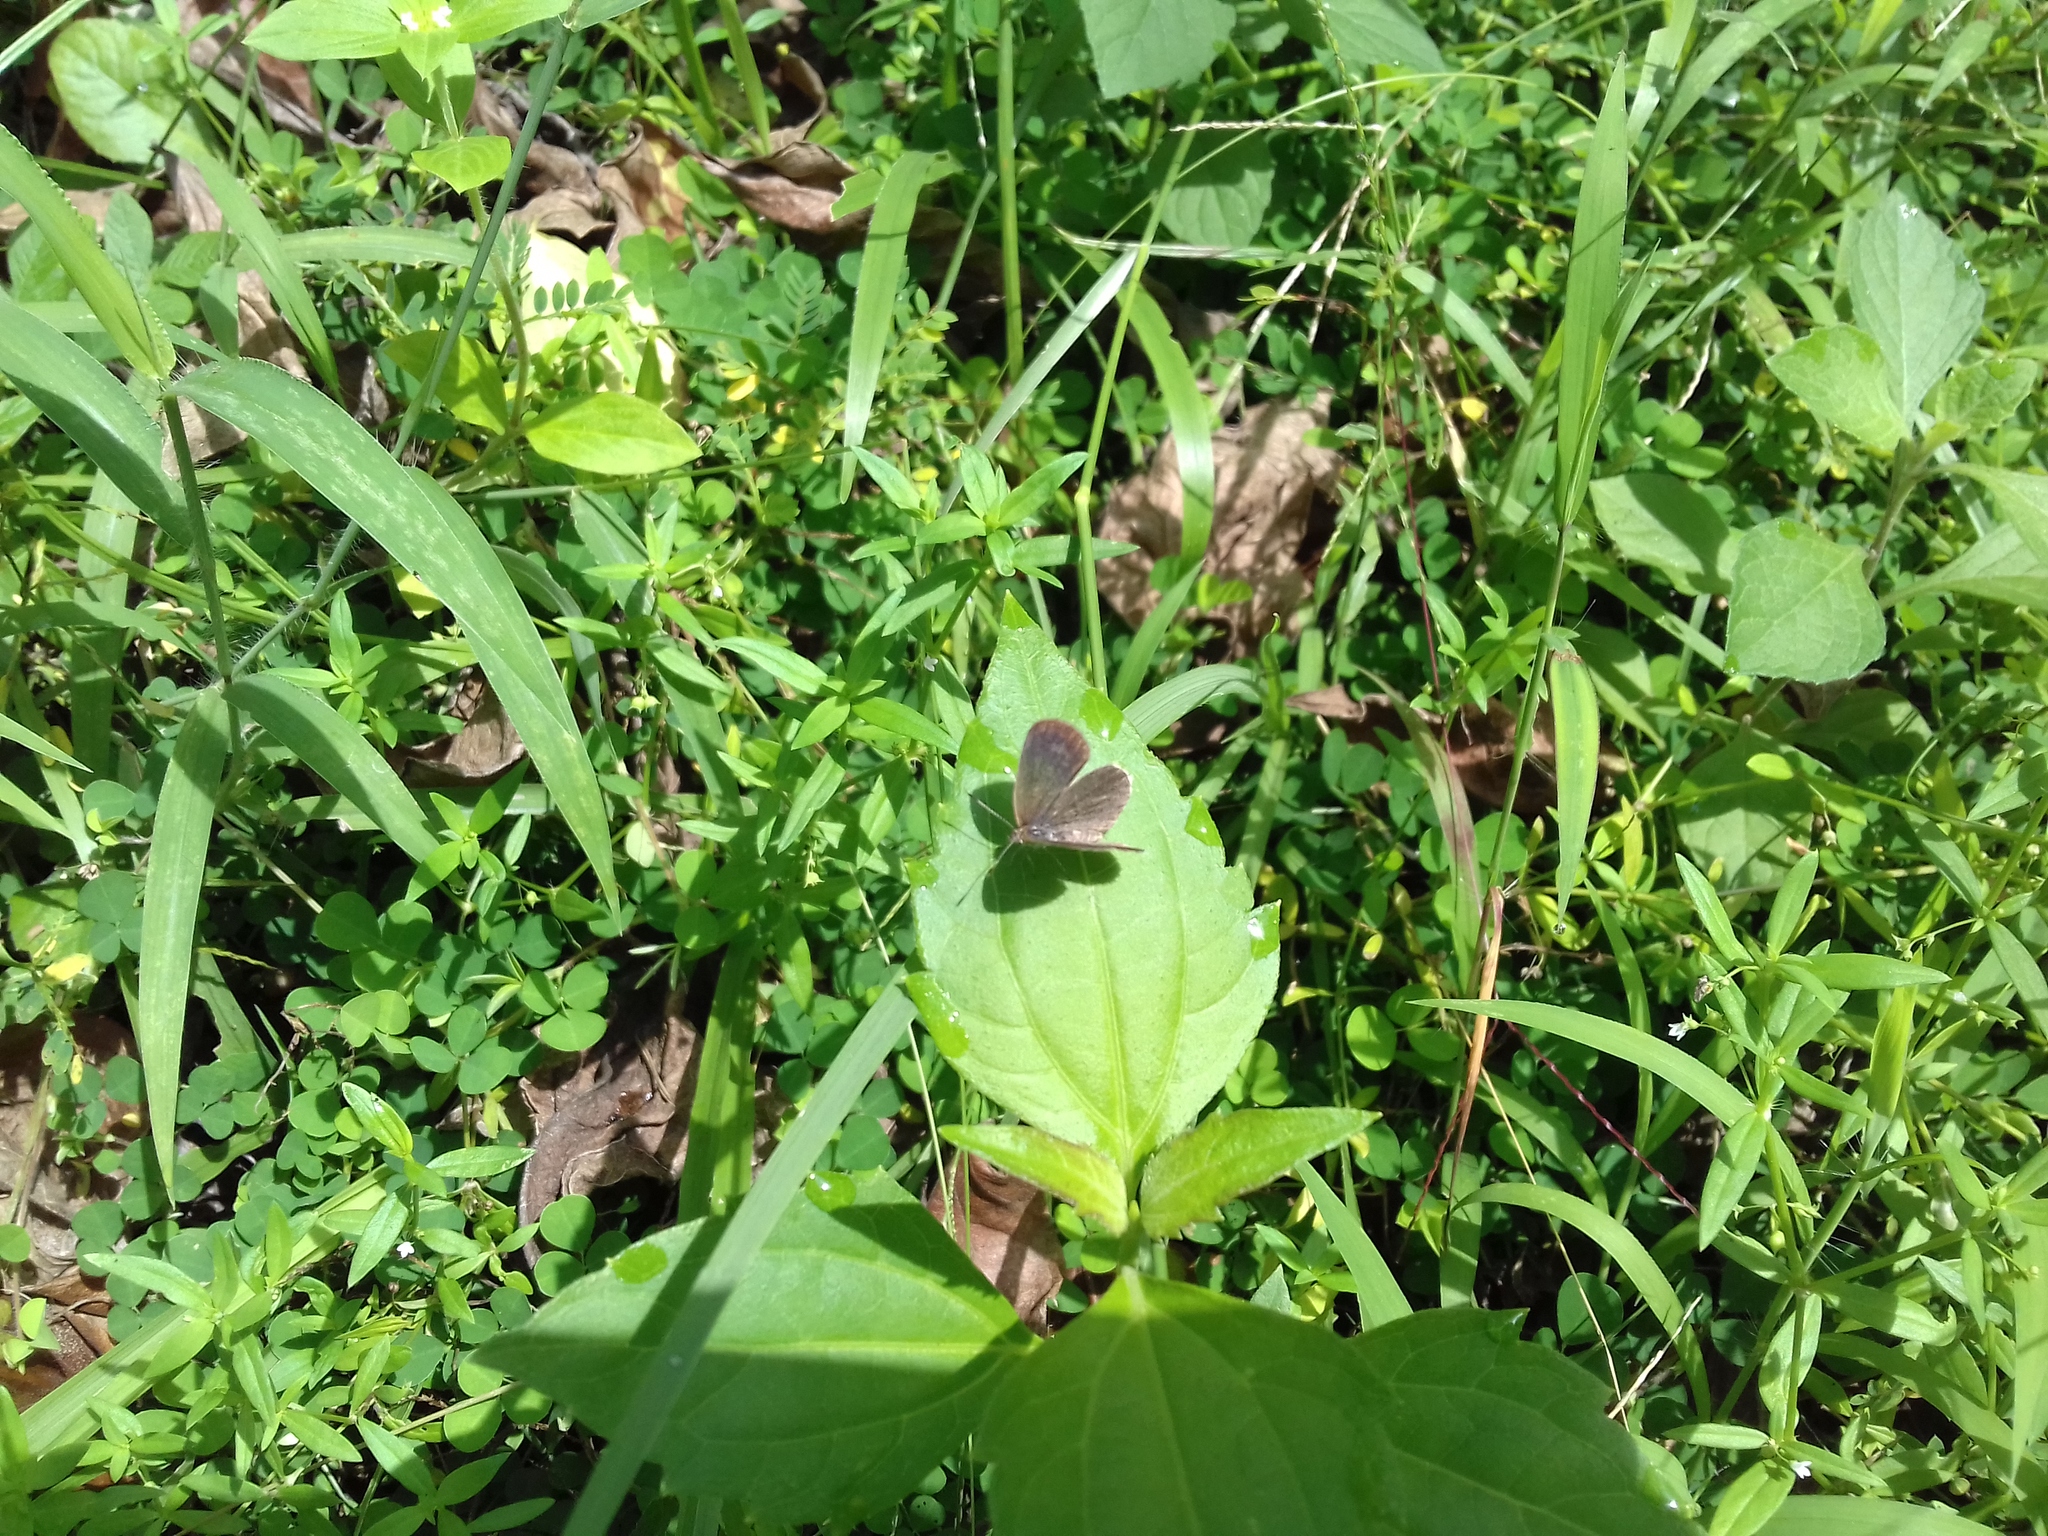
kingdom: Animalia
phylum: Arthropoda
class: Insecta
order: Lepidoptera
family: Lycaenidae
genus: Pseudozizeeria
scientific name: Pseudozizeeria maha
